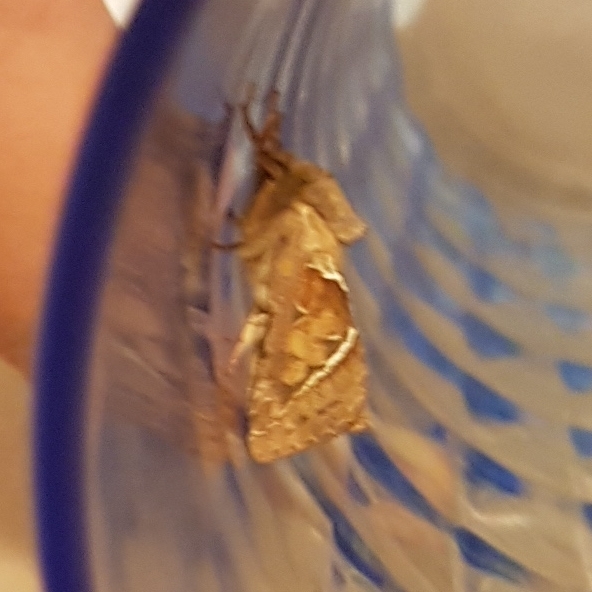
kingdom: Animalia
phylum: Arthropoda
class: Insecta
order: Lepidoptera
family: Hepialidae
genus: Triodia
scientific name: Triodia sylvina
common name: Orange swift
